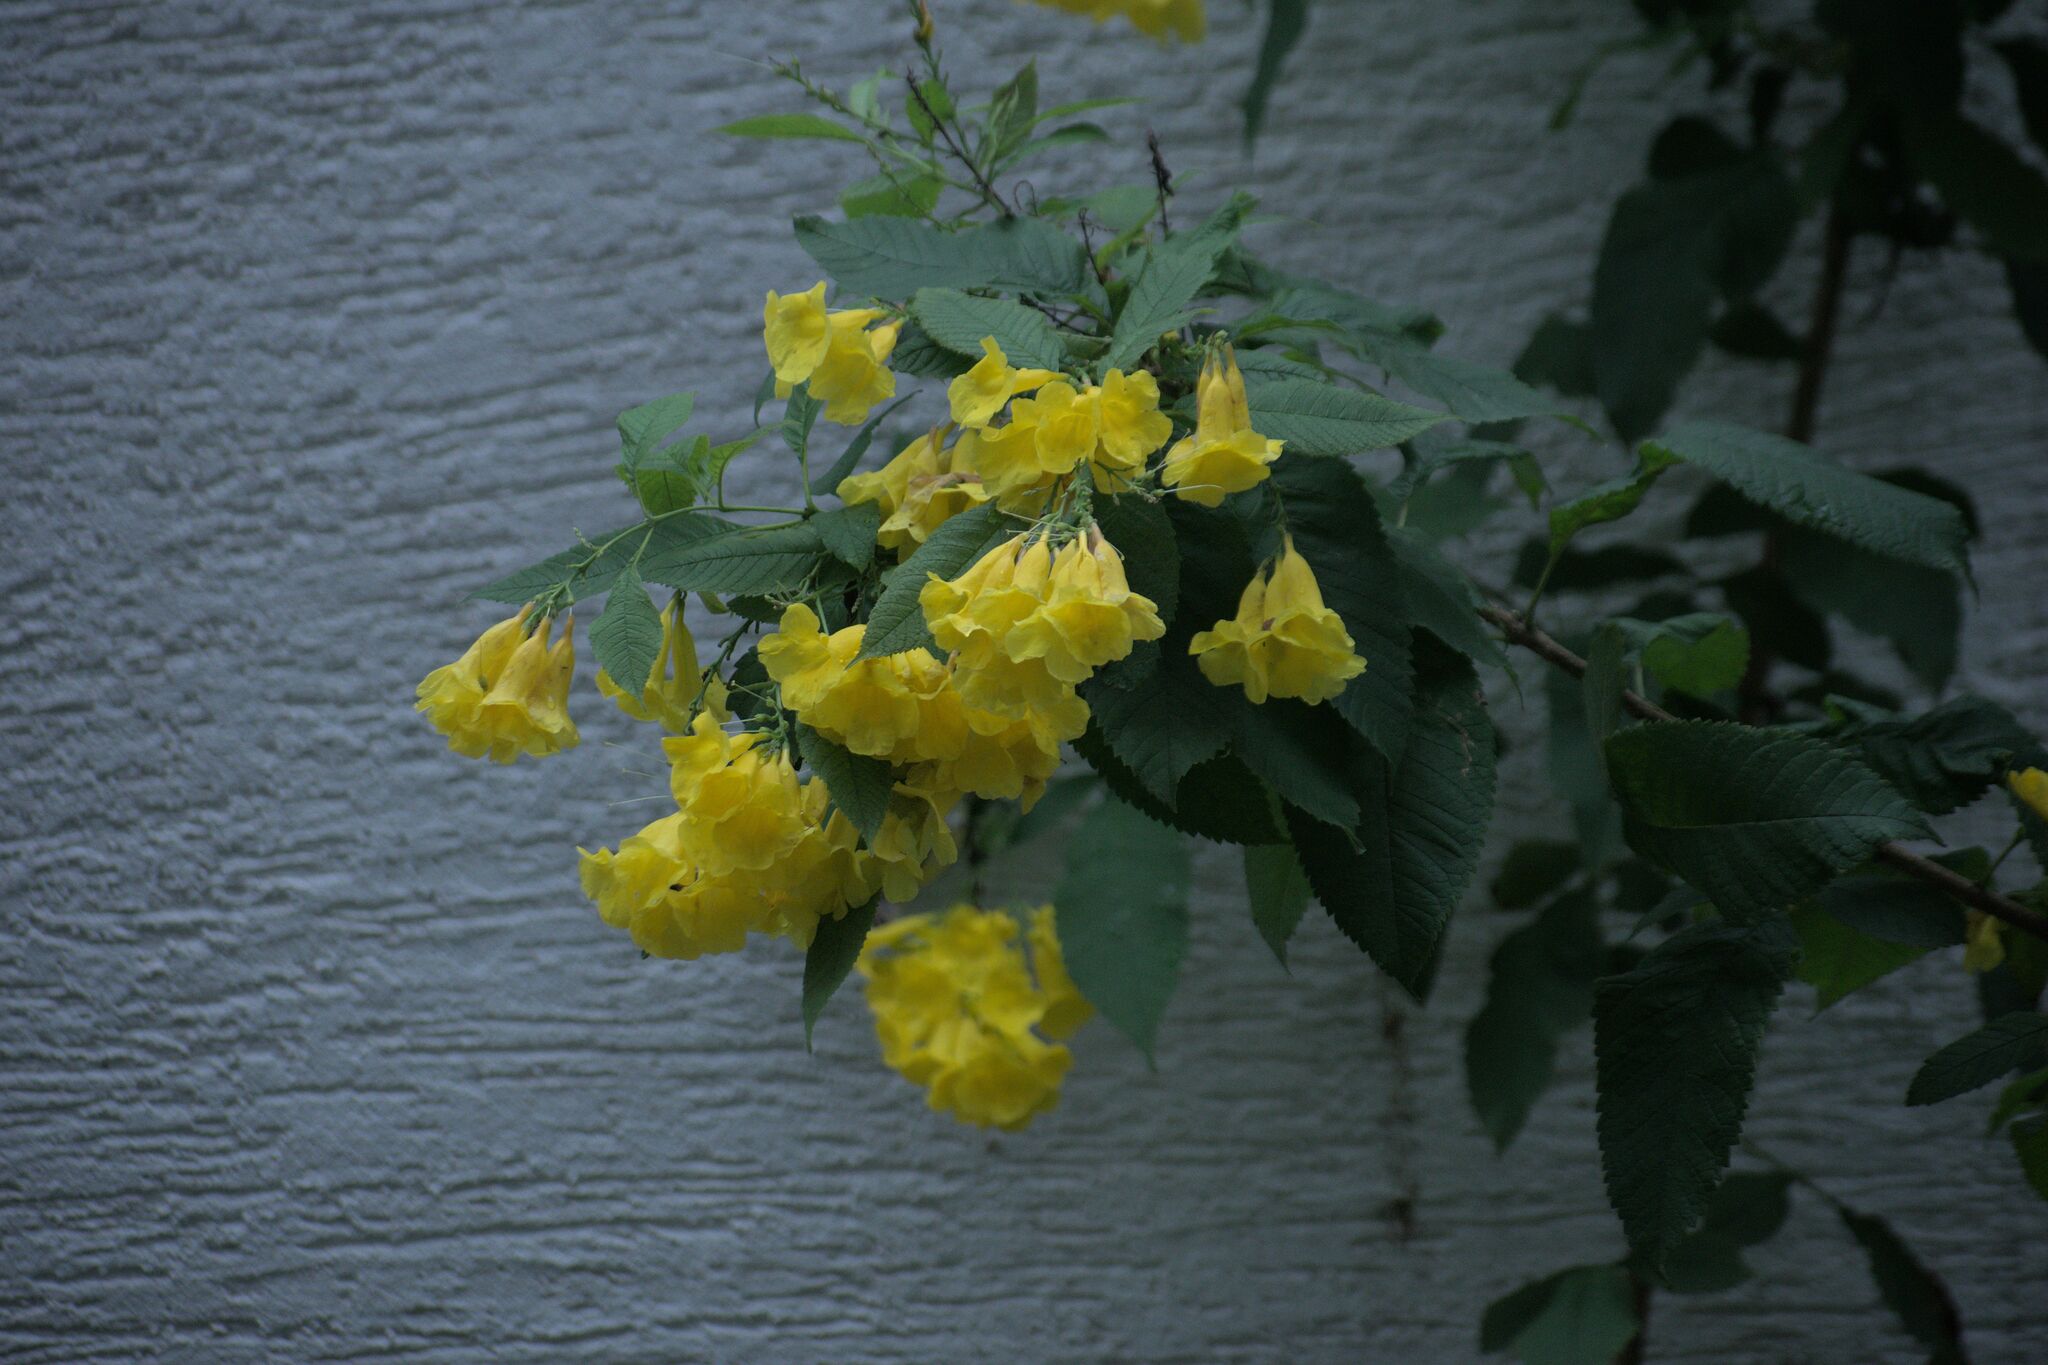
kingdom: Plantae
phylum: Tracheophyta
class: Magnoliopsida
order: Lamiales
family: Bignoniaceae
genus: Tecoma
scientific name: Tecoma stans
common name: Yellow trumpetbush
